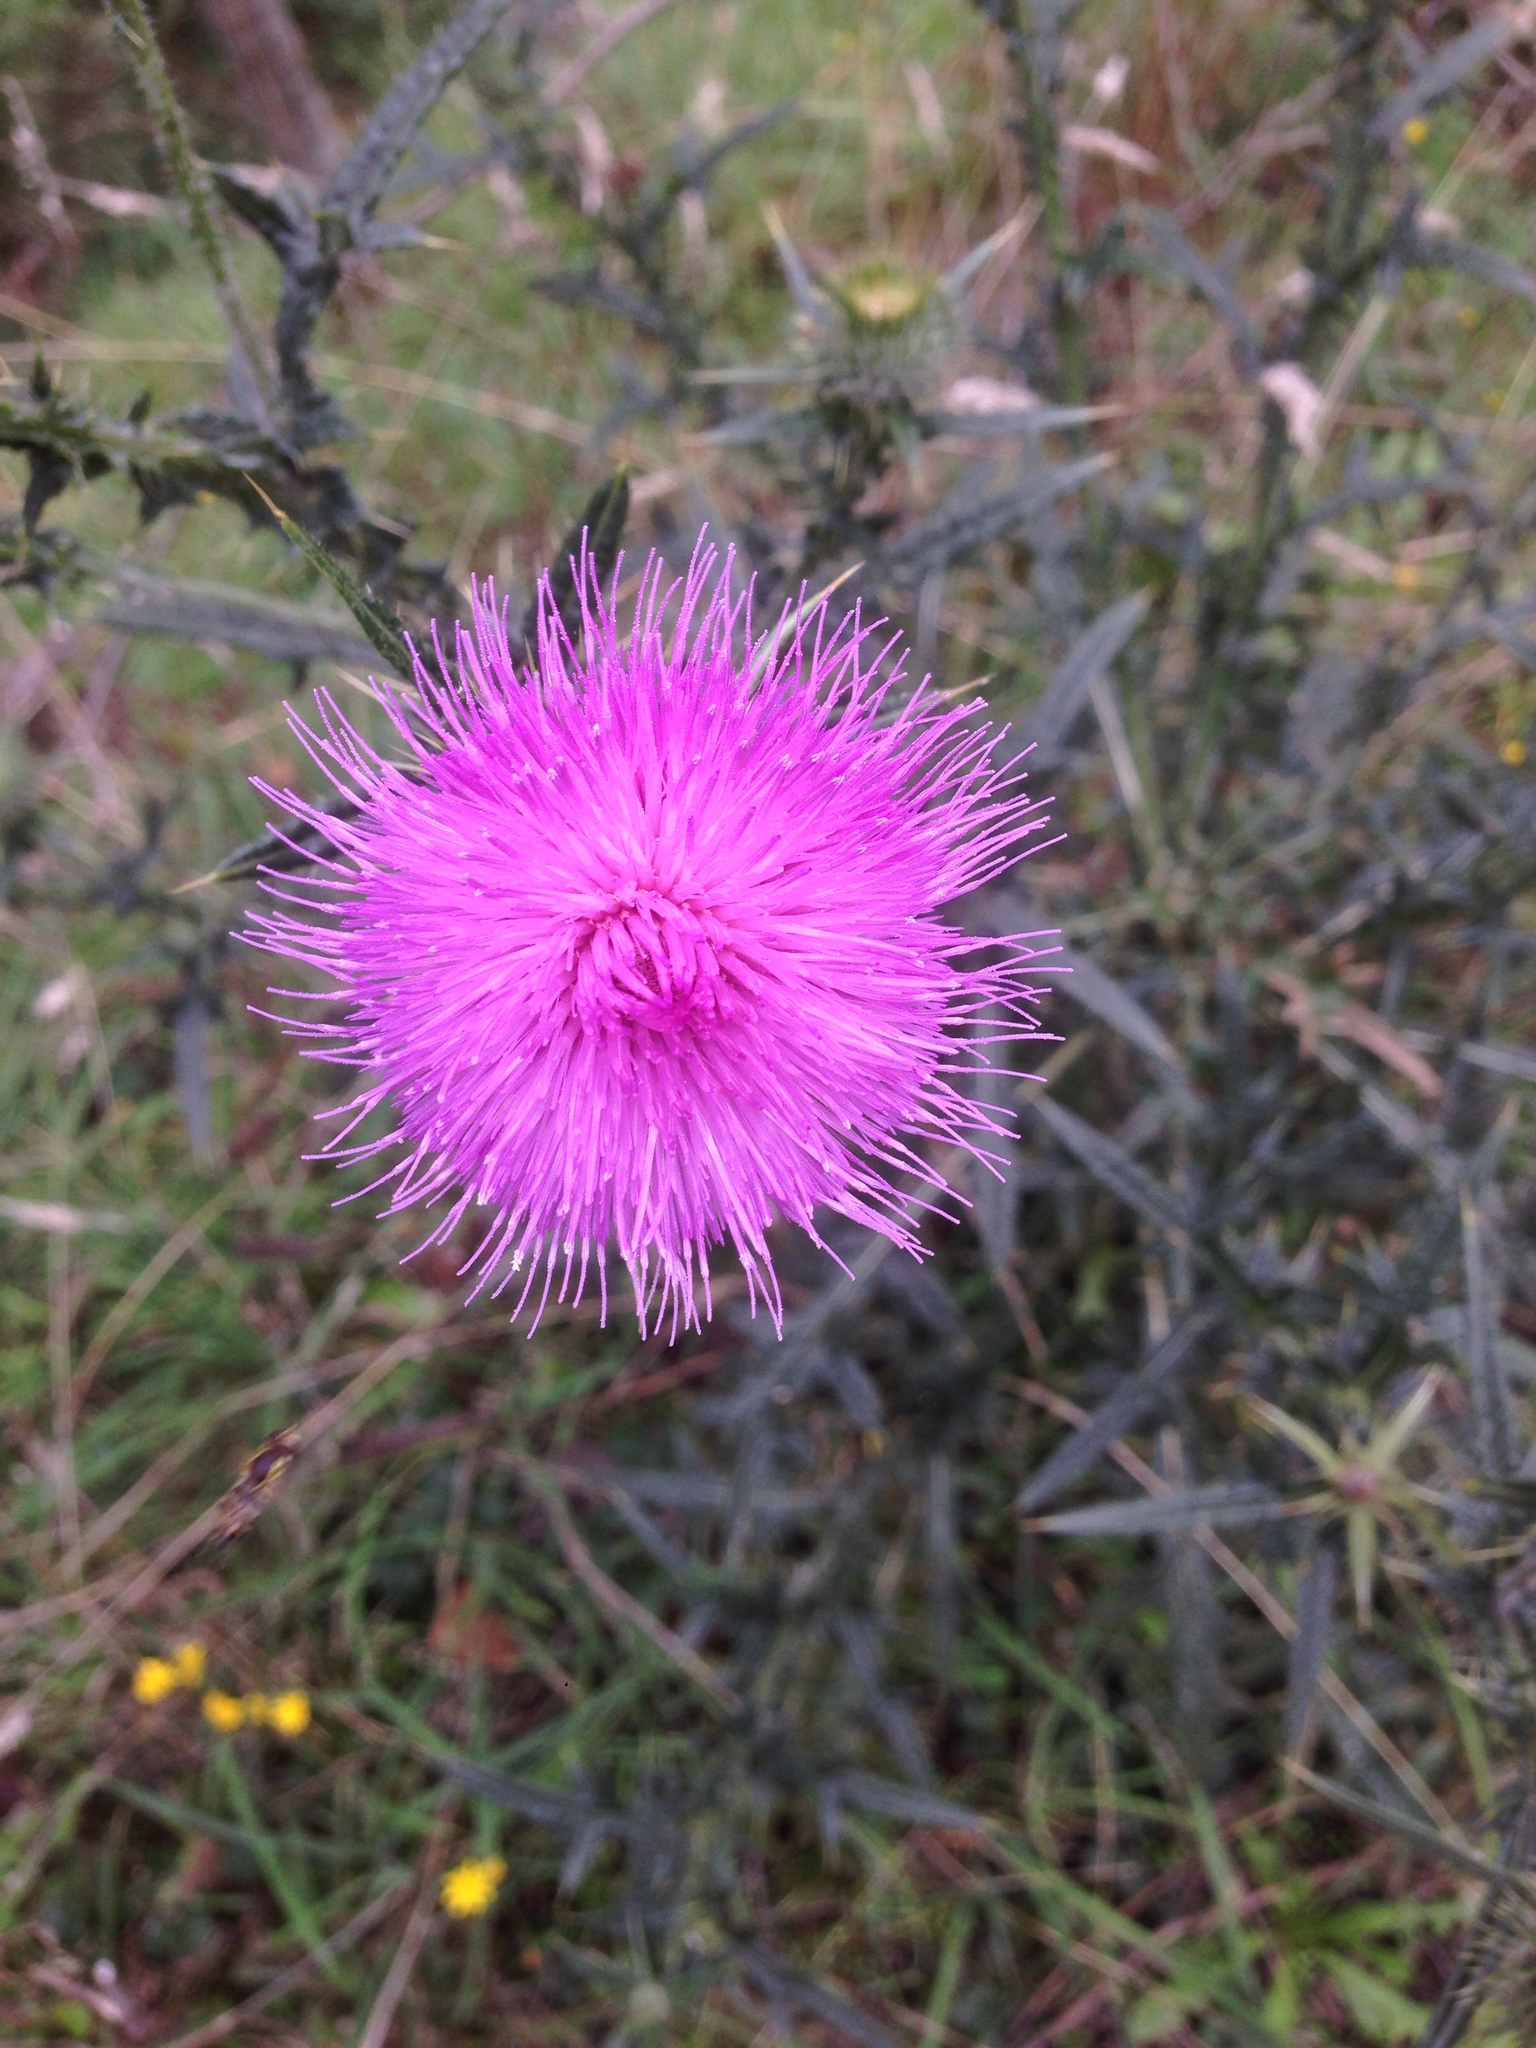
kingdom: Plantae
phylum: Tracheophyta
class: Magnoliopsida
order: Asterales
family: Asteraceae
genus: Cirsium
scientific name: Cirsium vulgare
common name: Bull thistle
